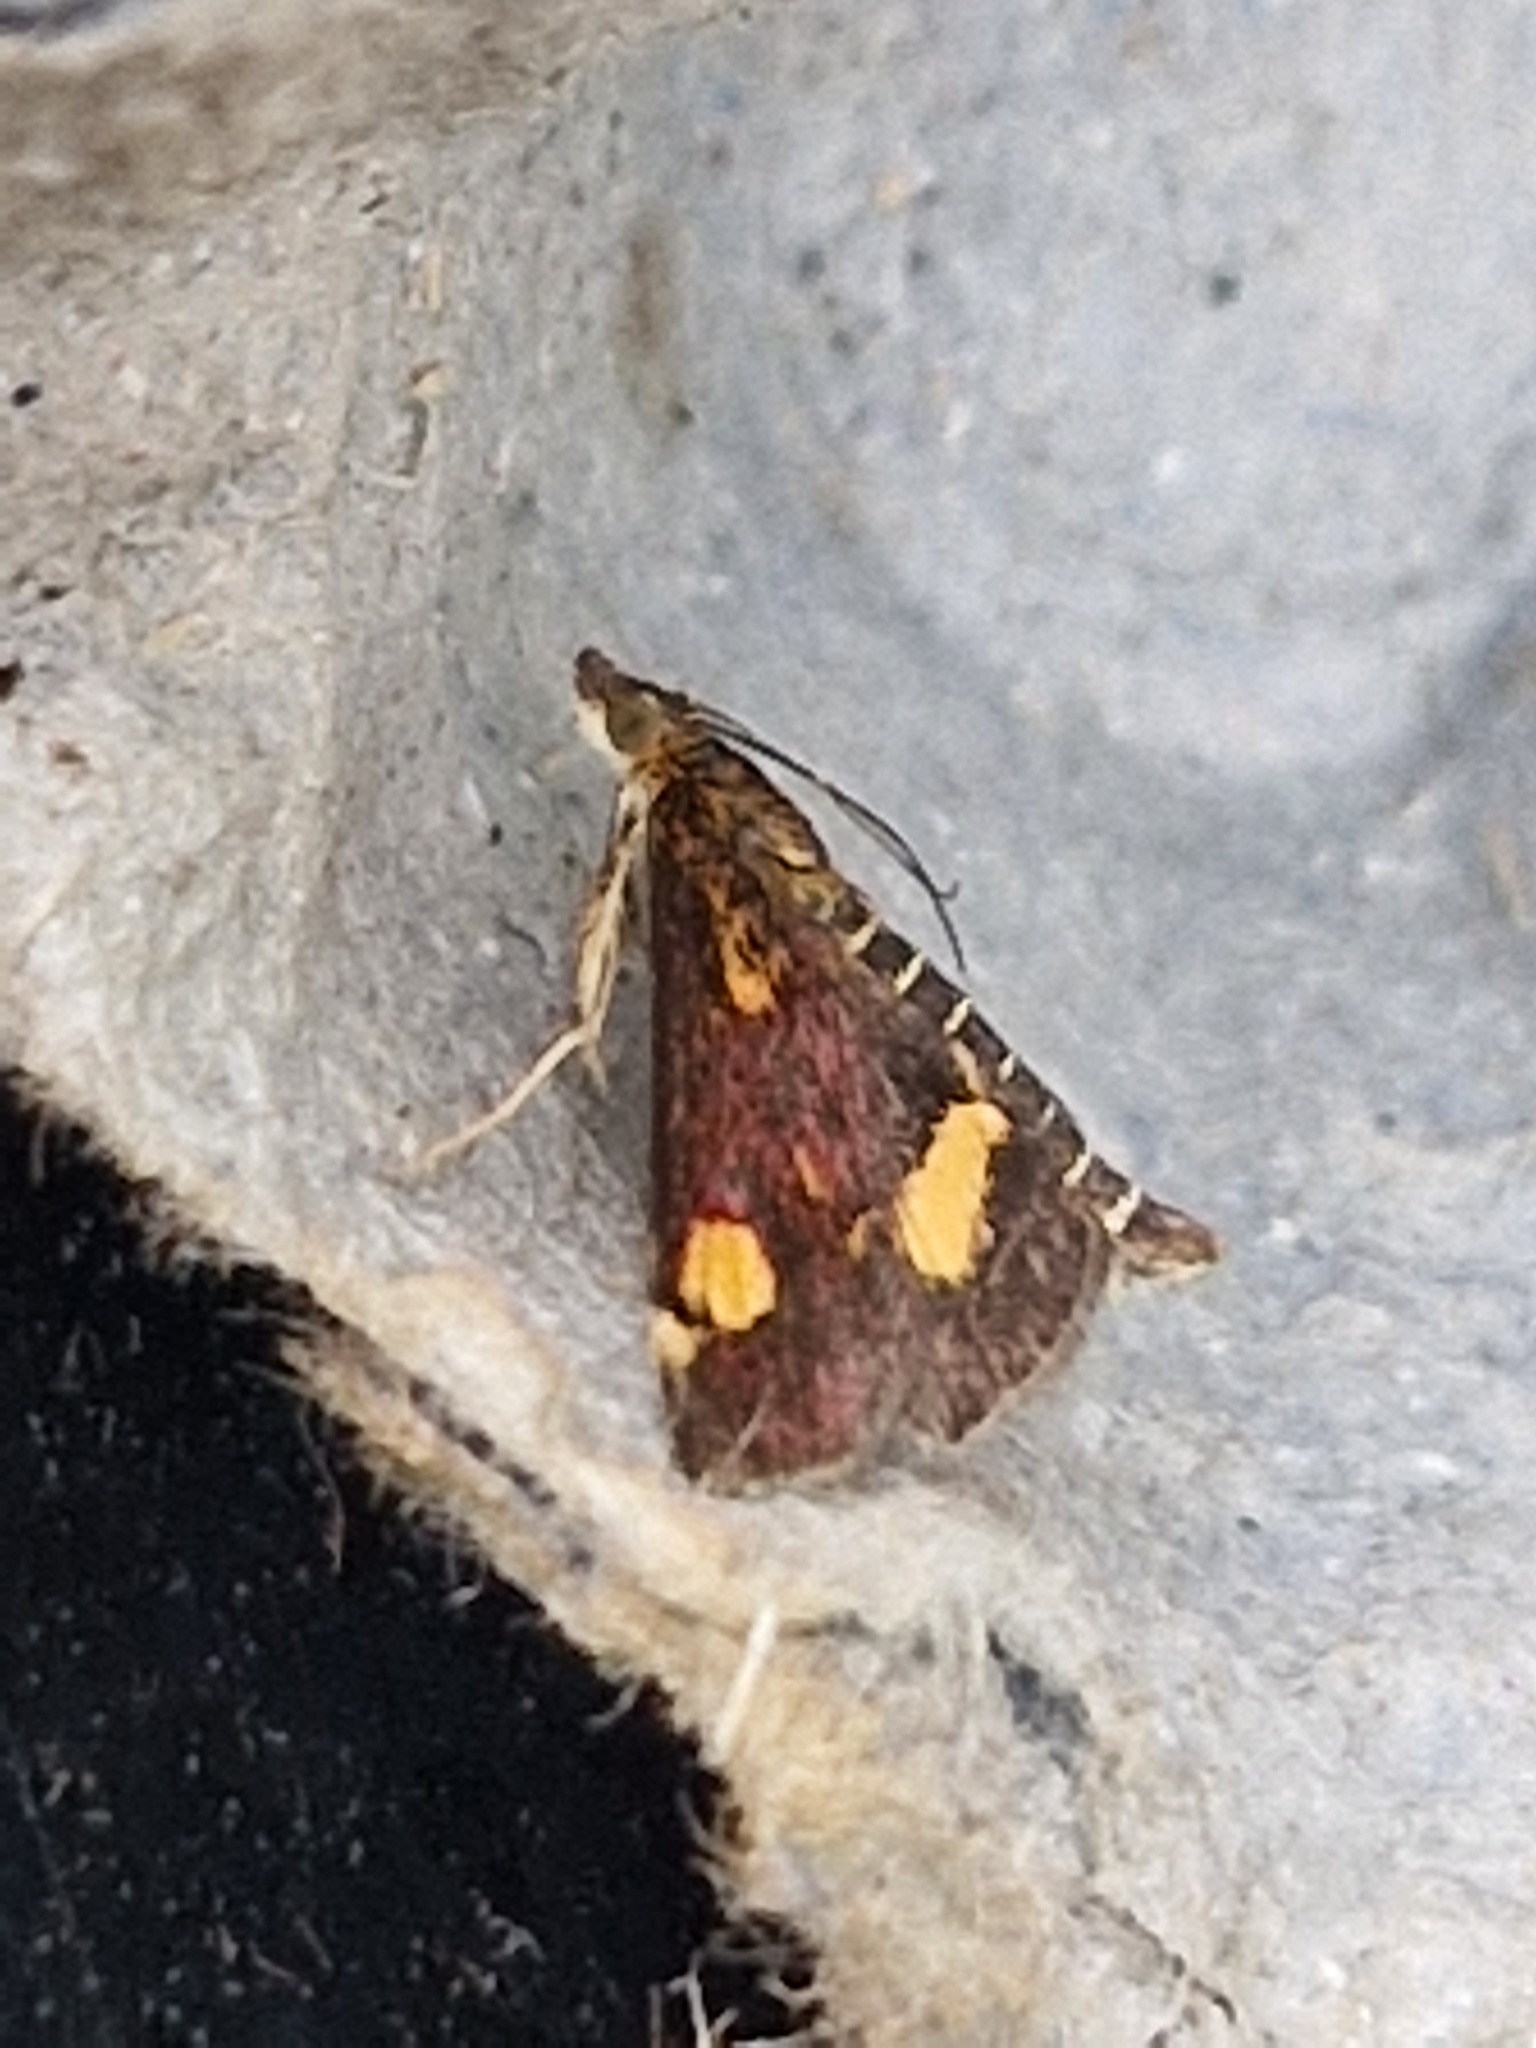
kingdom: Animalia
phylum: Arthropoda
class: Insecta
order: Lepidoptera
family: Crambidae
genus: Pyrausta
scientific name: Pyrausta aurata
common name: Small purple & gold
